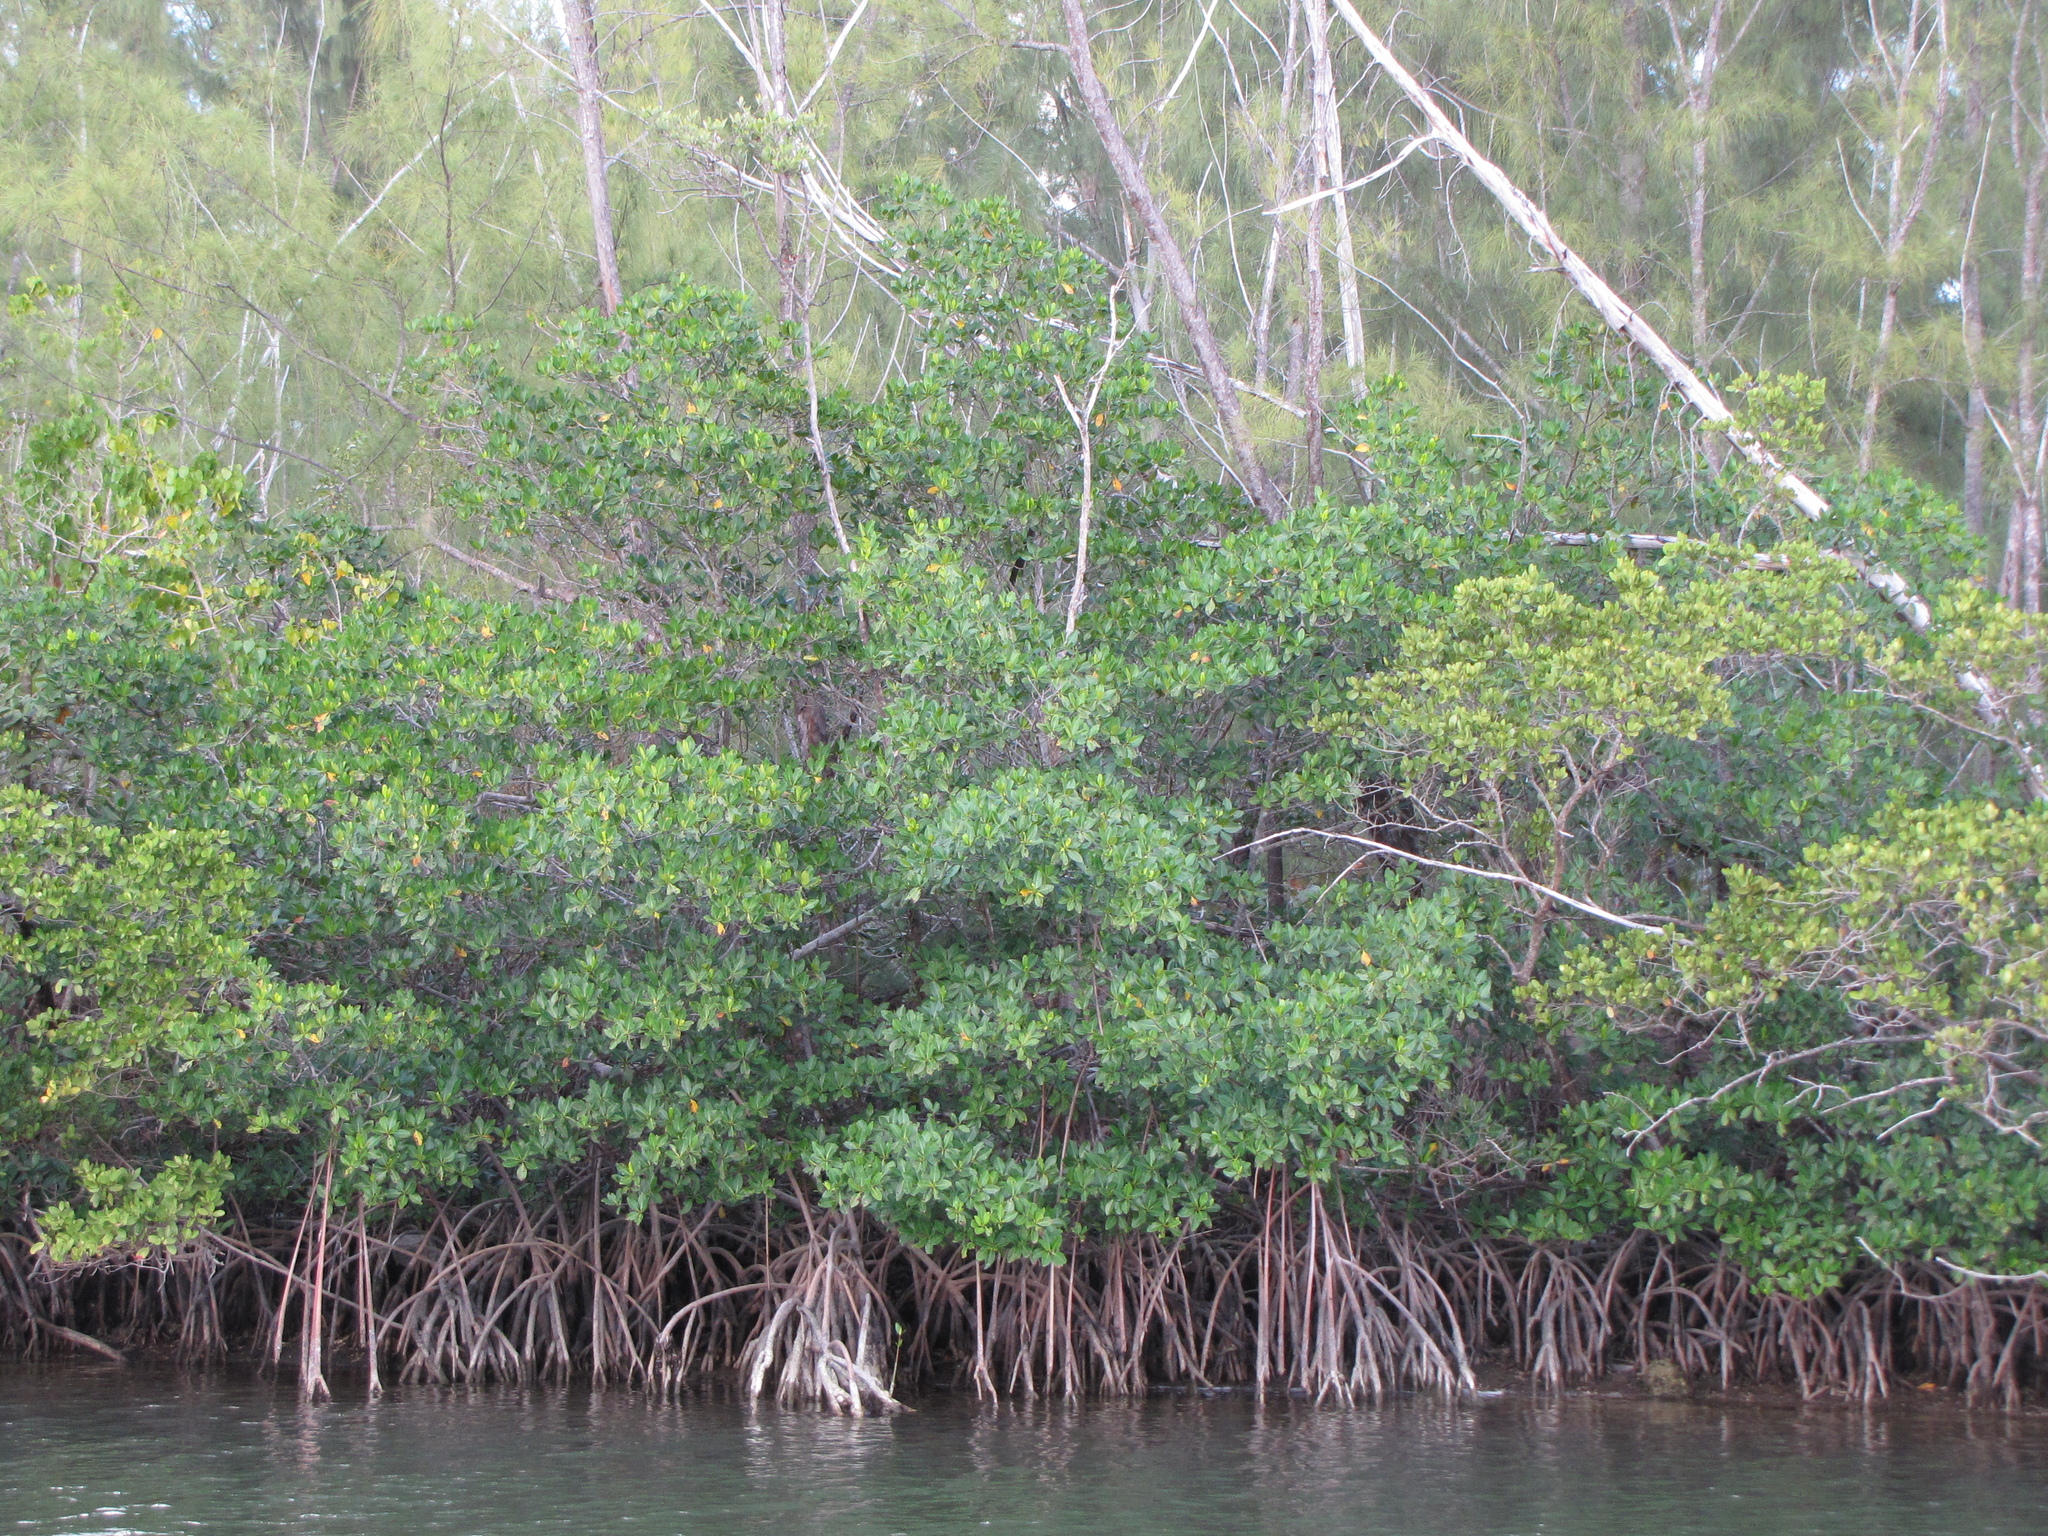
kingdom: Plantae
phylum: Tracheophyta
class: Magnoliopsida
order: Malpighiales
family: Rhizophoraceae
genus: Rhizophora
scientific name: Rhizophora mangle
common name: Red mangrove
